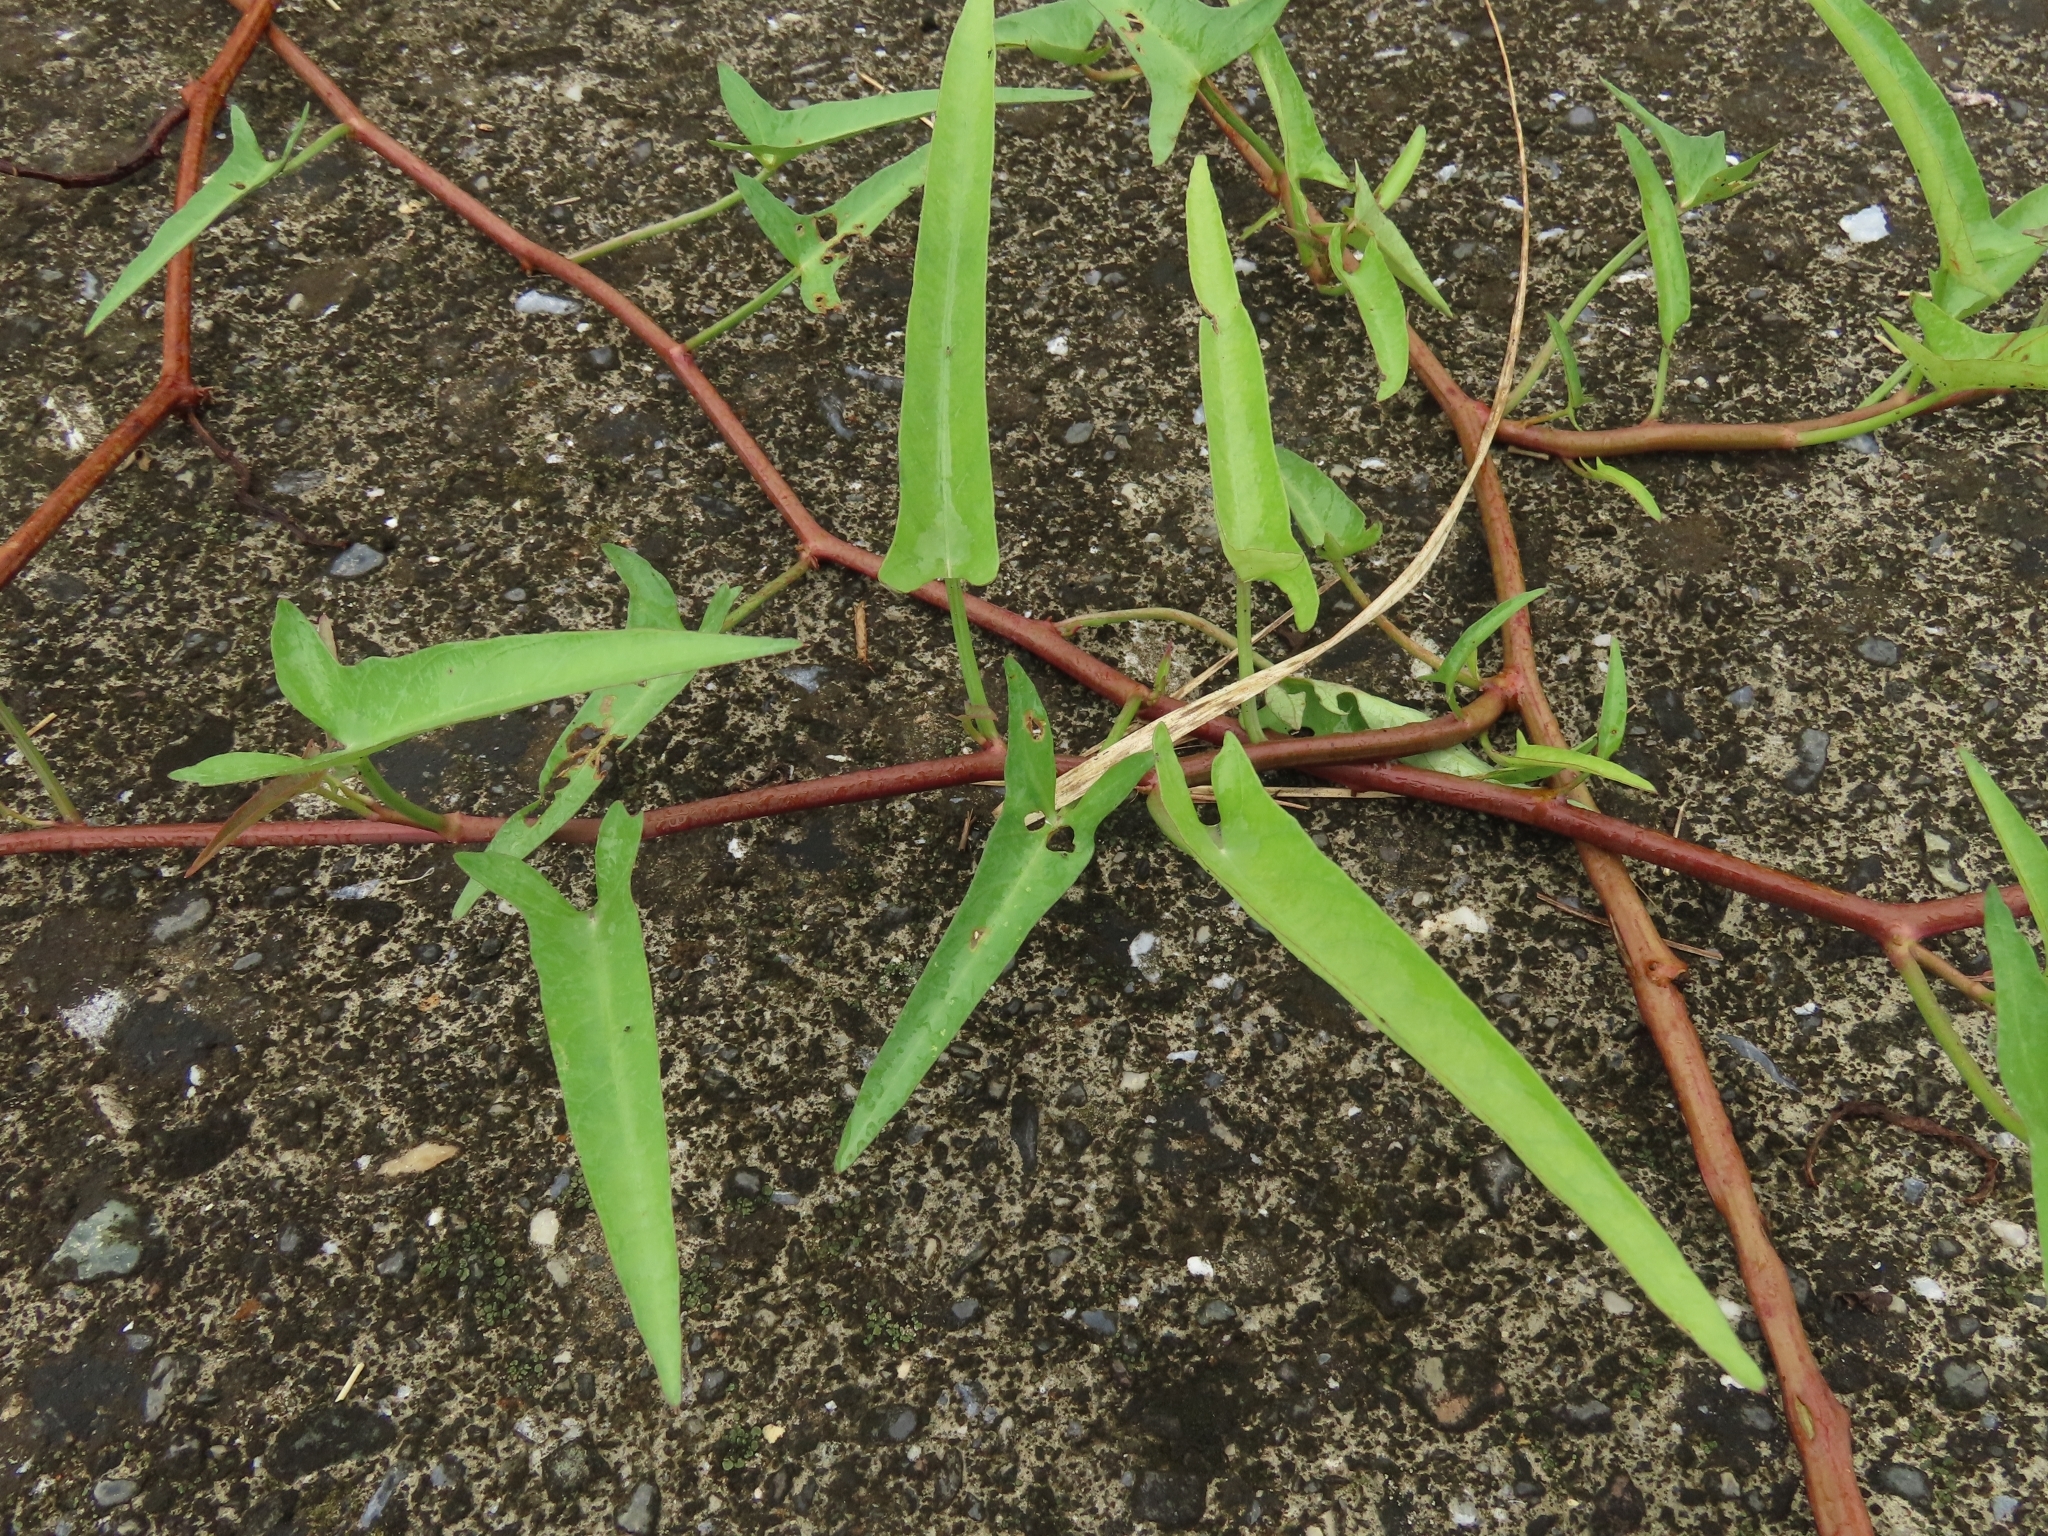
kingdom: Plantae
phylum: Tracheophyta
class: Magnoliopsida
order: Solanales
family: Convolvulaceae
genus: Ipomoea
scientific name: Ipomoea aquatica
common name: Swamp morning-glory
